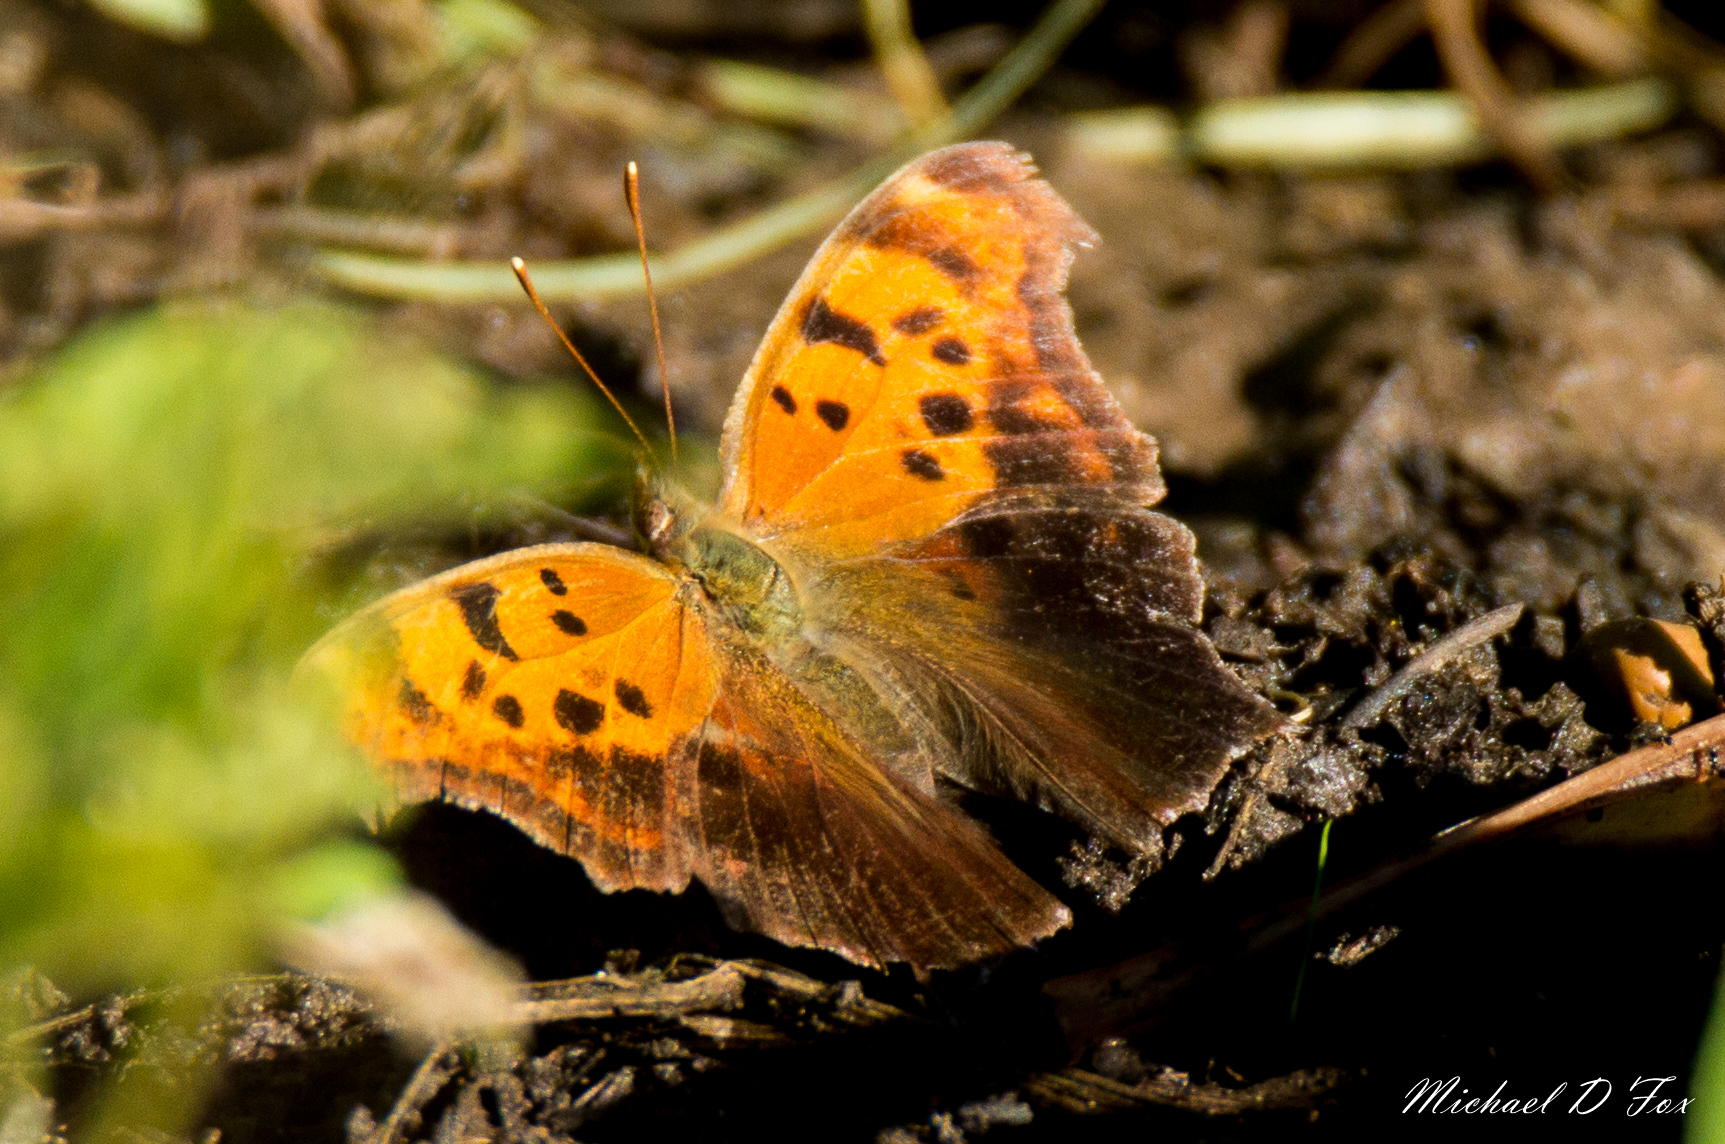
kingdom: Animalia
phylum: Arthropoda
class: Insecta
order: Lepidoptera
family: Nymphalidae
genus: Polygonia
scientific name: Polygonia interrogationis
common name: Question mark
